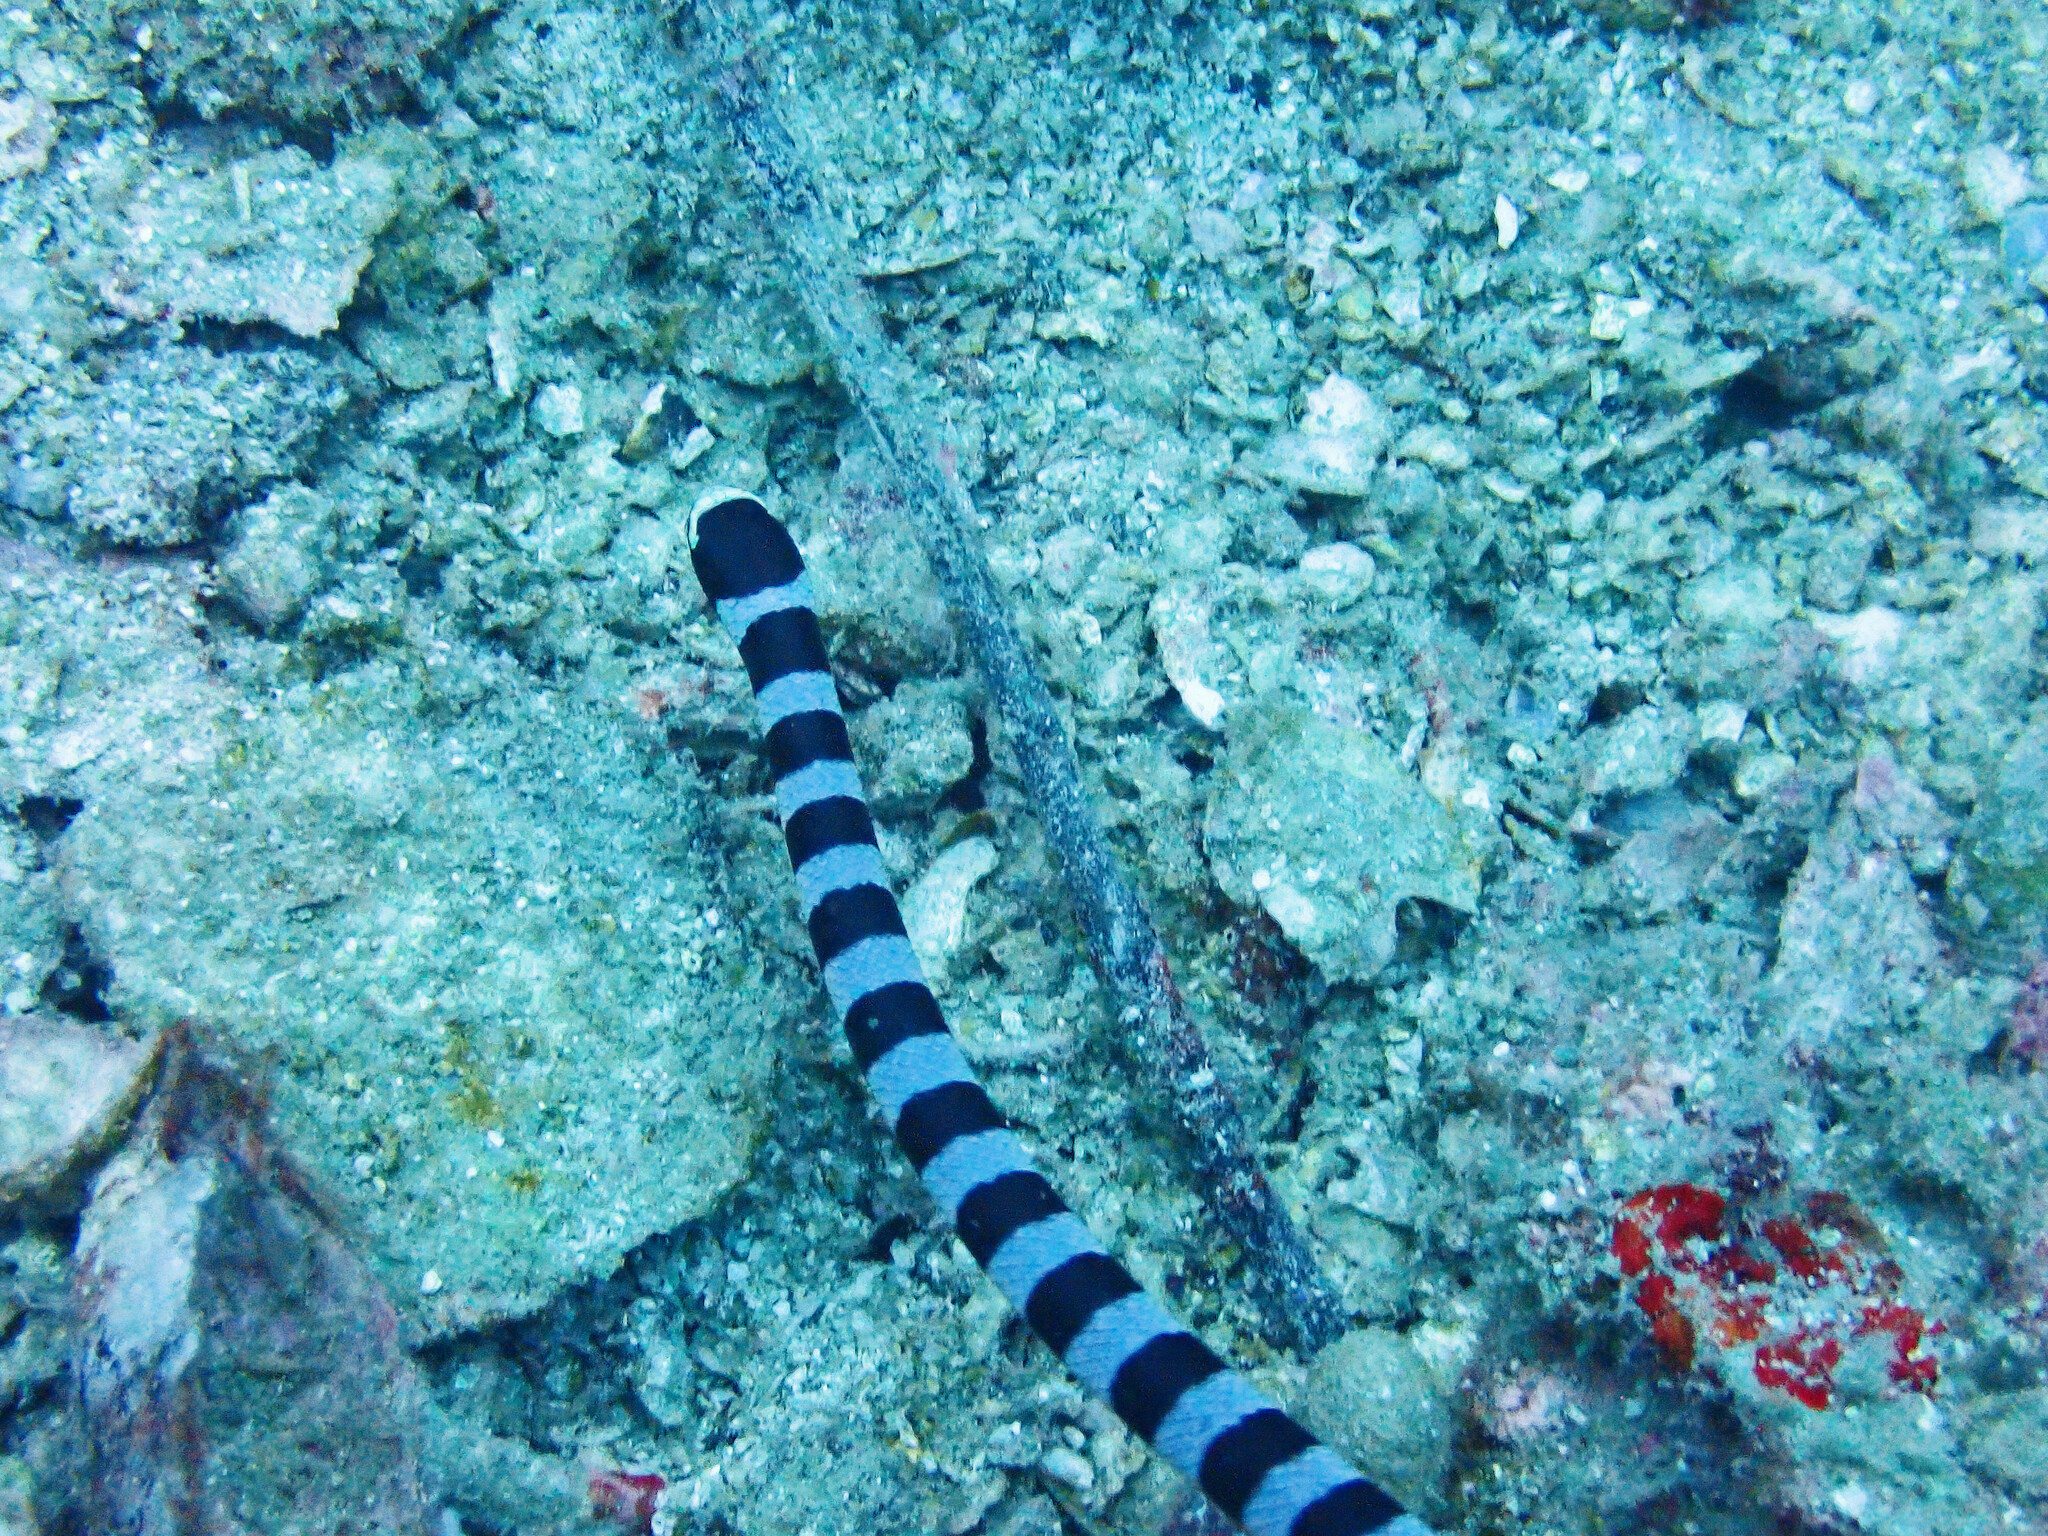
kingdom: Animalia
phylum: Chordata
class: Squamata
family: Elapidae
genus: Laticauda
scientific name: Laticauda colubrina
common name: Yellow-lipped sea krait
